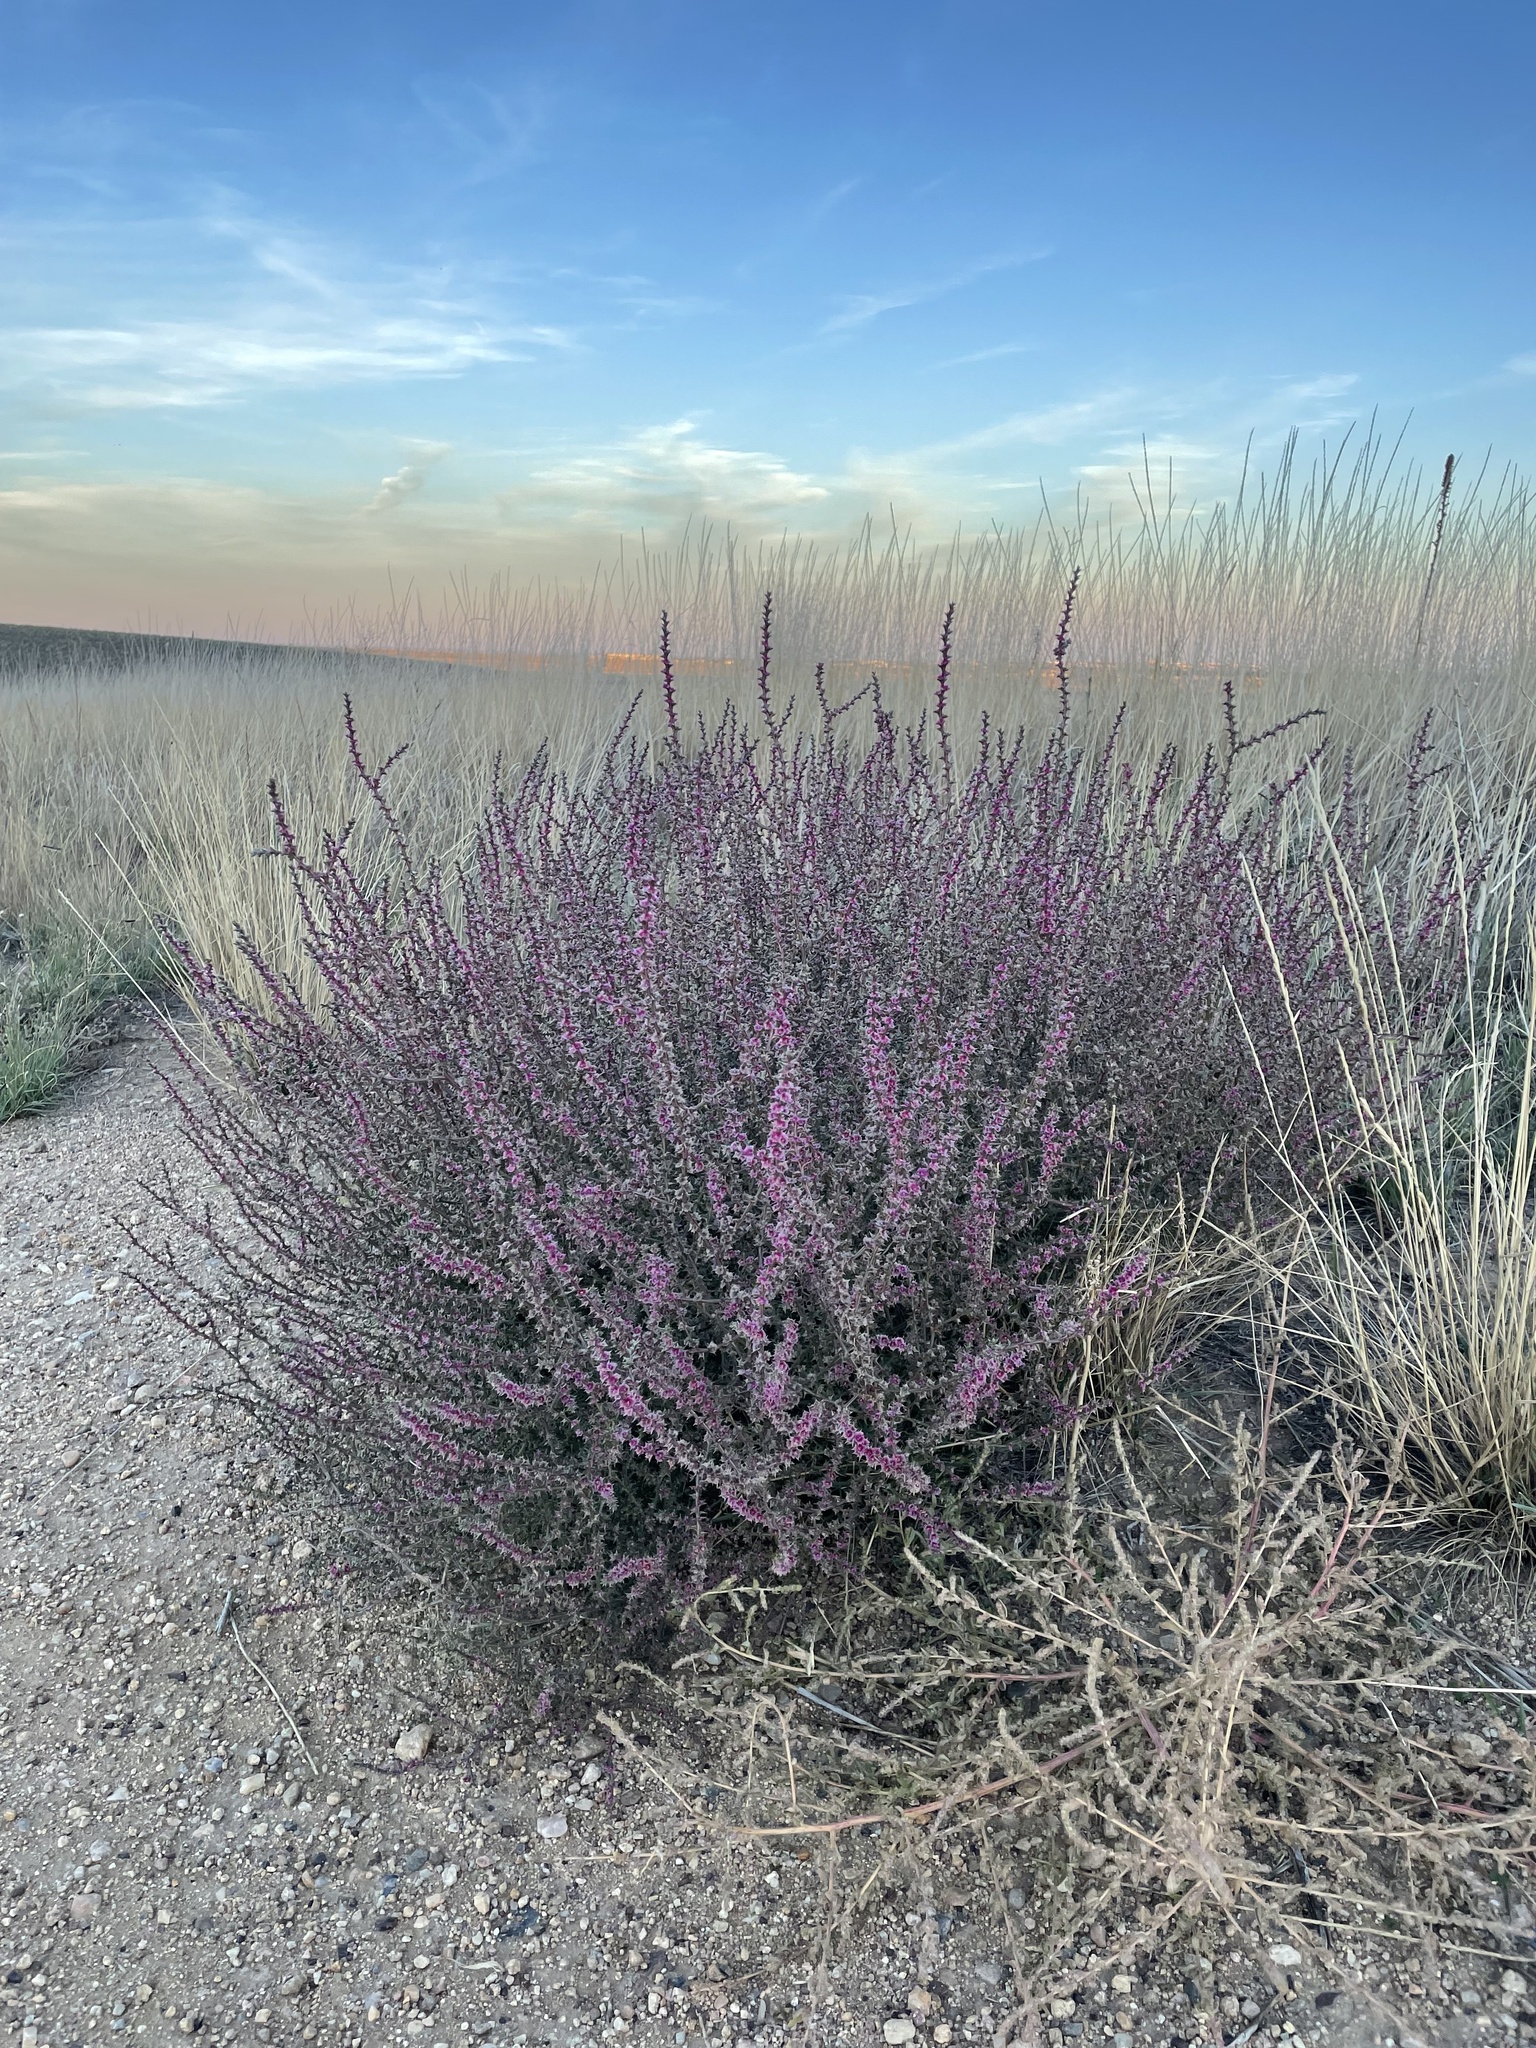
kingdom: Plantae
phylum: Tracheophyta
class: Magnoliopsida
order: Caryophyllales
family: Amaranthaceae
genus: Salsola
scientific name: Salsola tragus
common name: Prickly russian thistle
